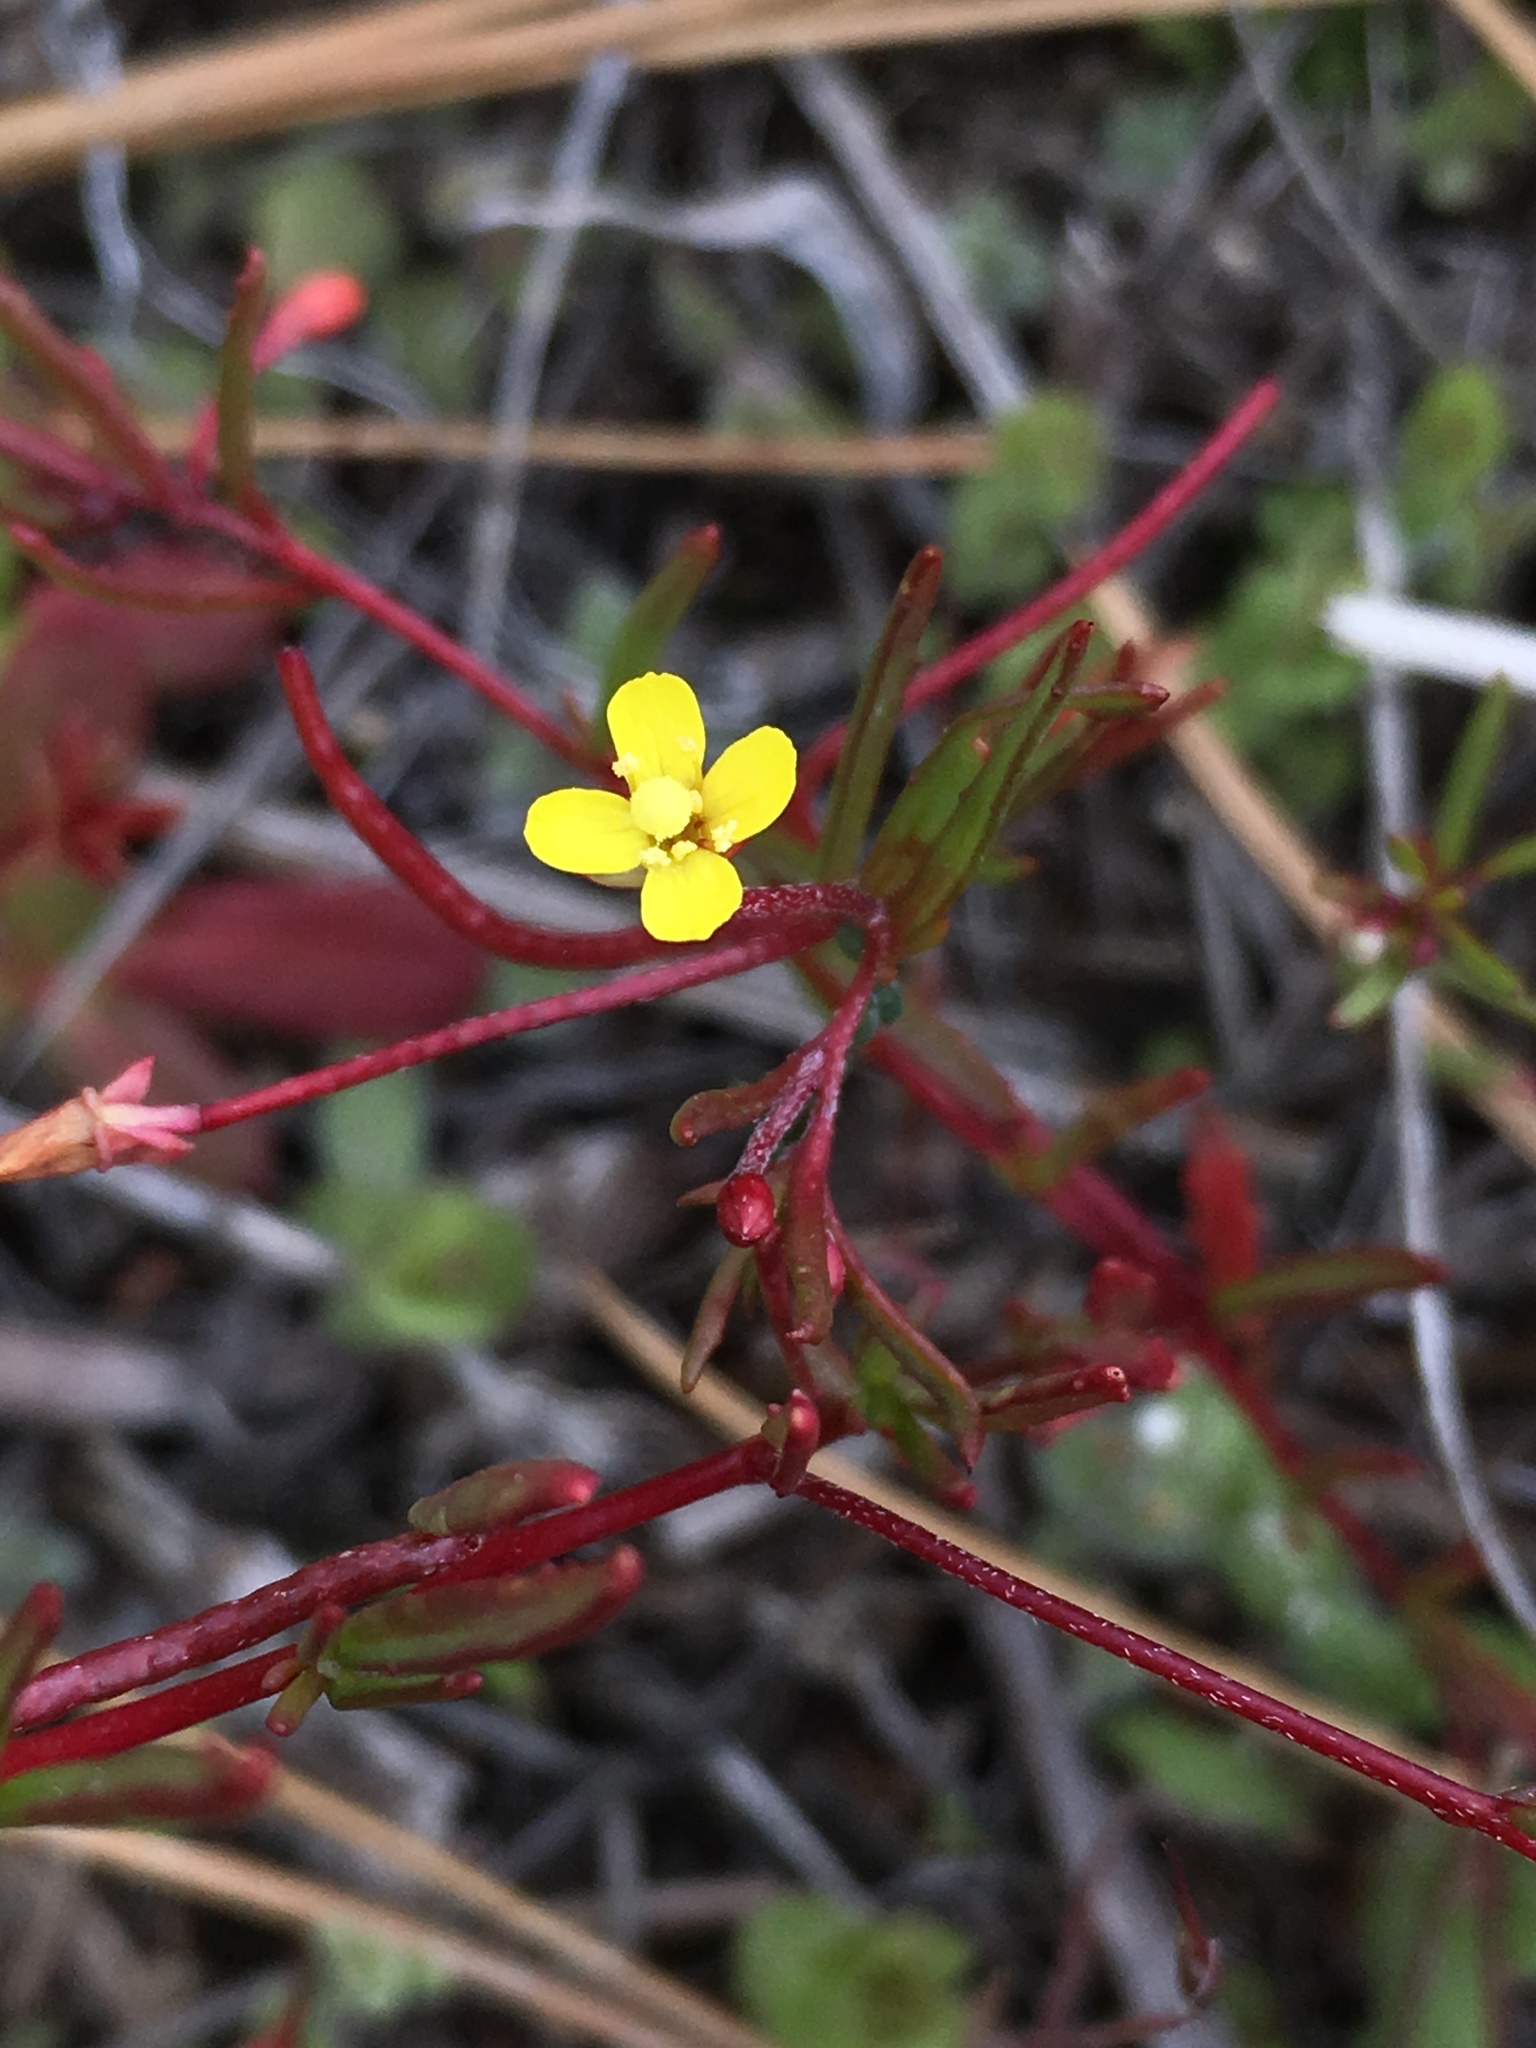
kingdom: Plantae
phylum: Tracheophyta
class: Magnoliopsida
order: Myrtales
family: Onagraceae
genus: Camissonia
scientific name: Camissonia strigulosa
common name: Contorted-primrose
